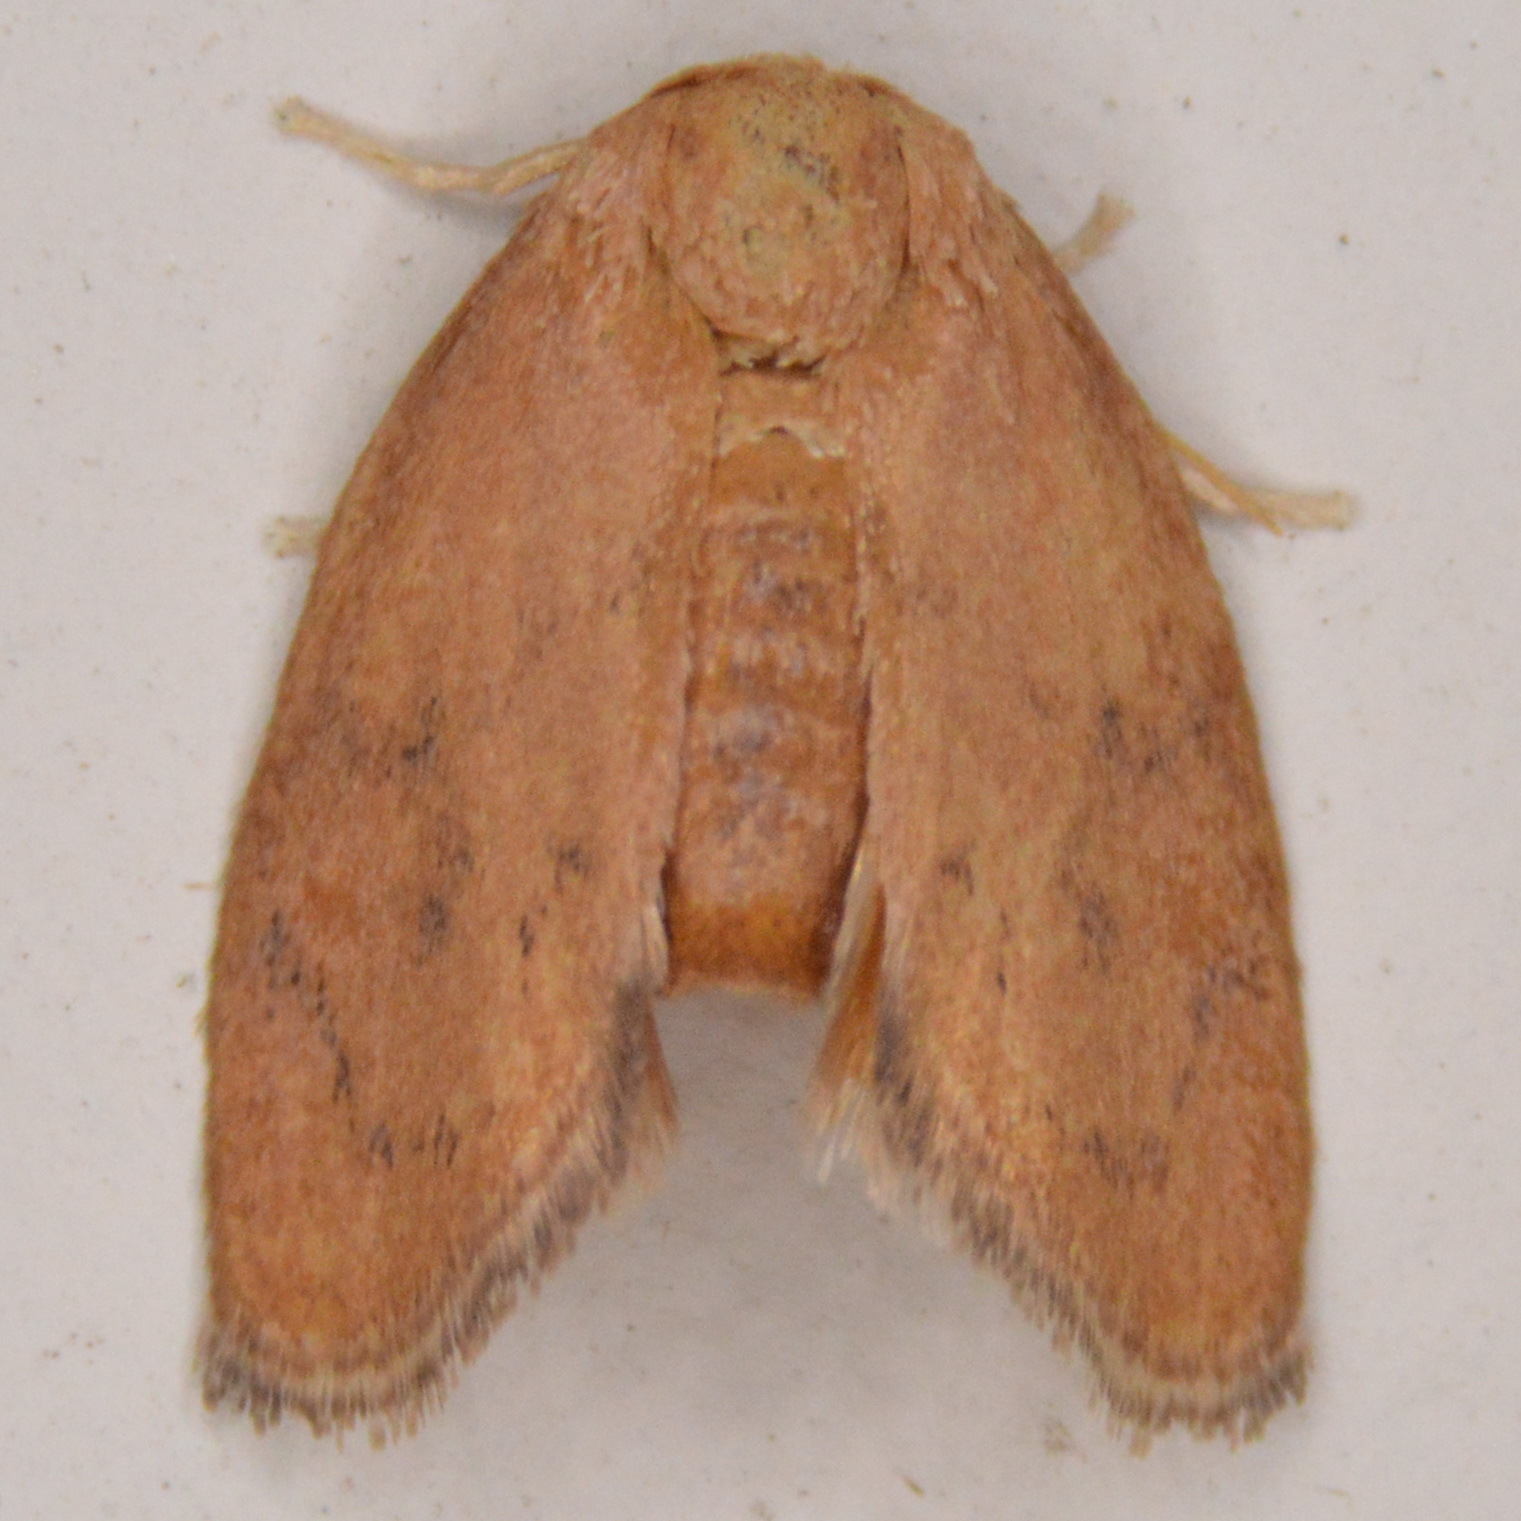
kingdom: Animalia
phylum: Arthropoda
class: Insecta
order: Lepidoptera
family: Limacodidae
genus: Heterogenea
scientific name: Heterogenea shurtleffi
